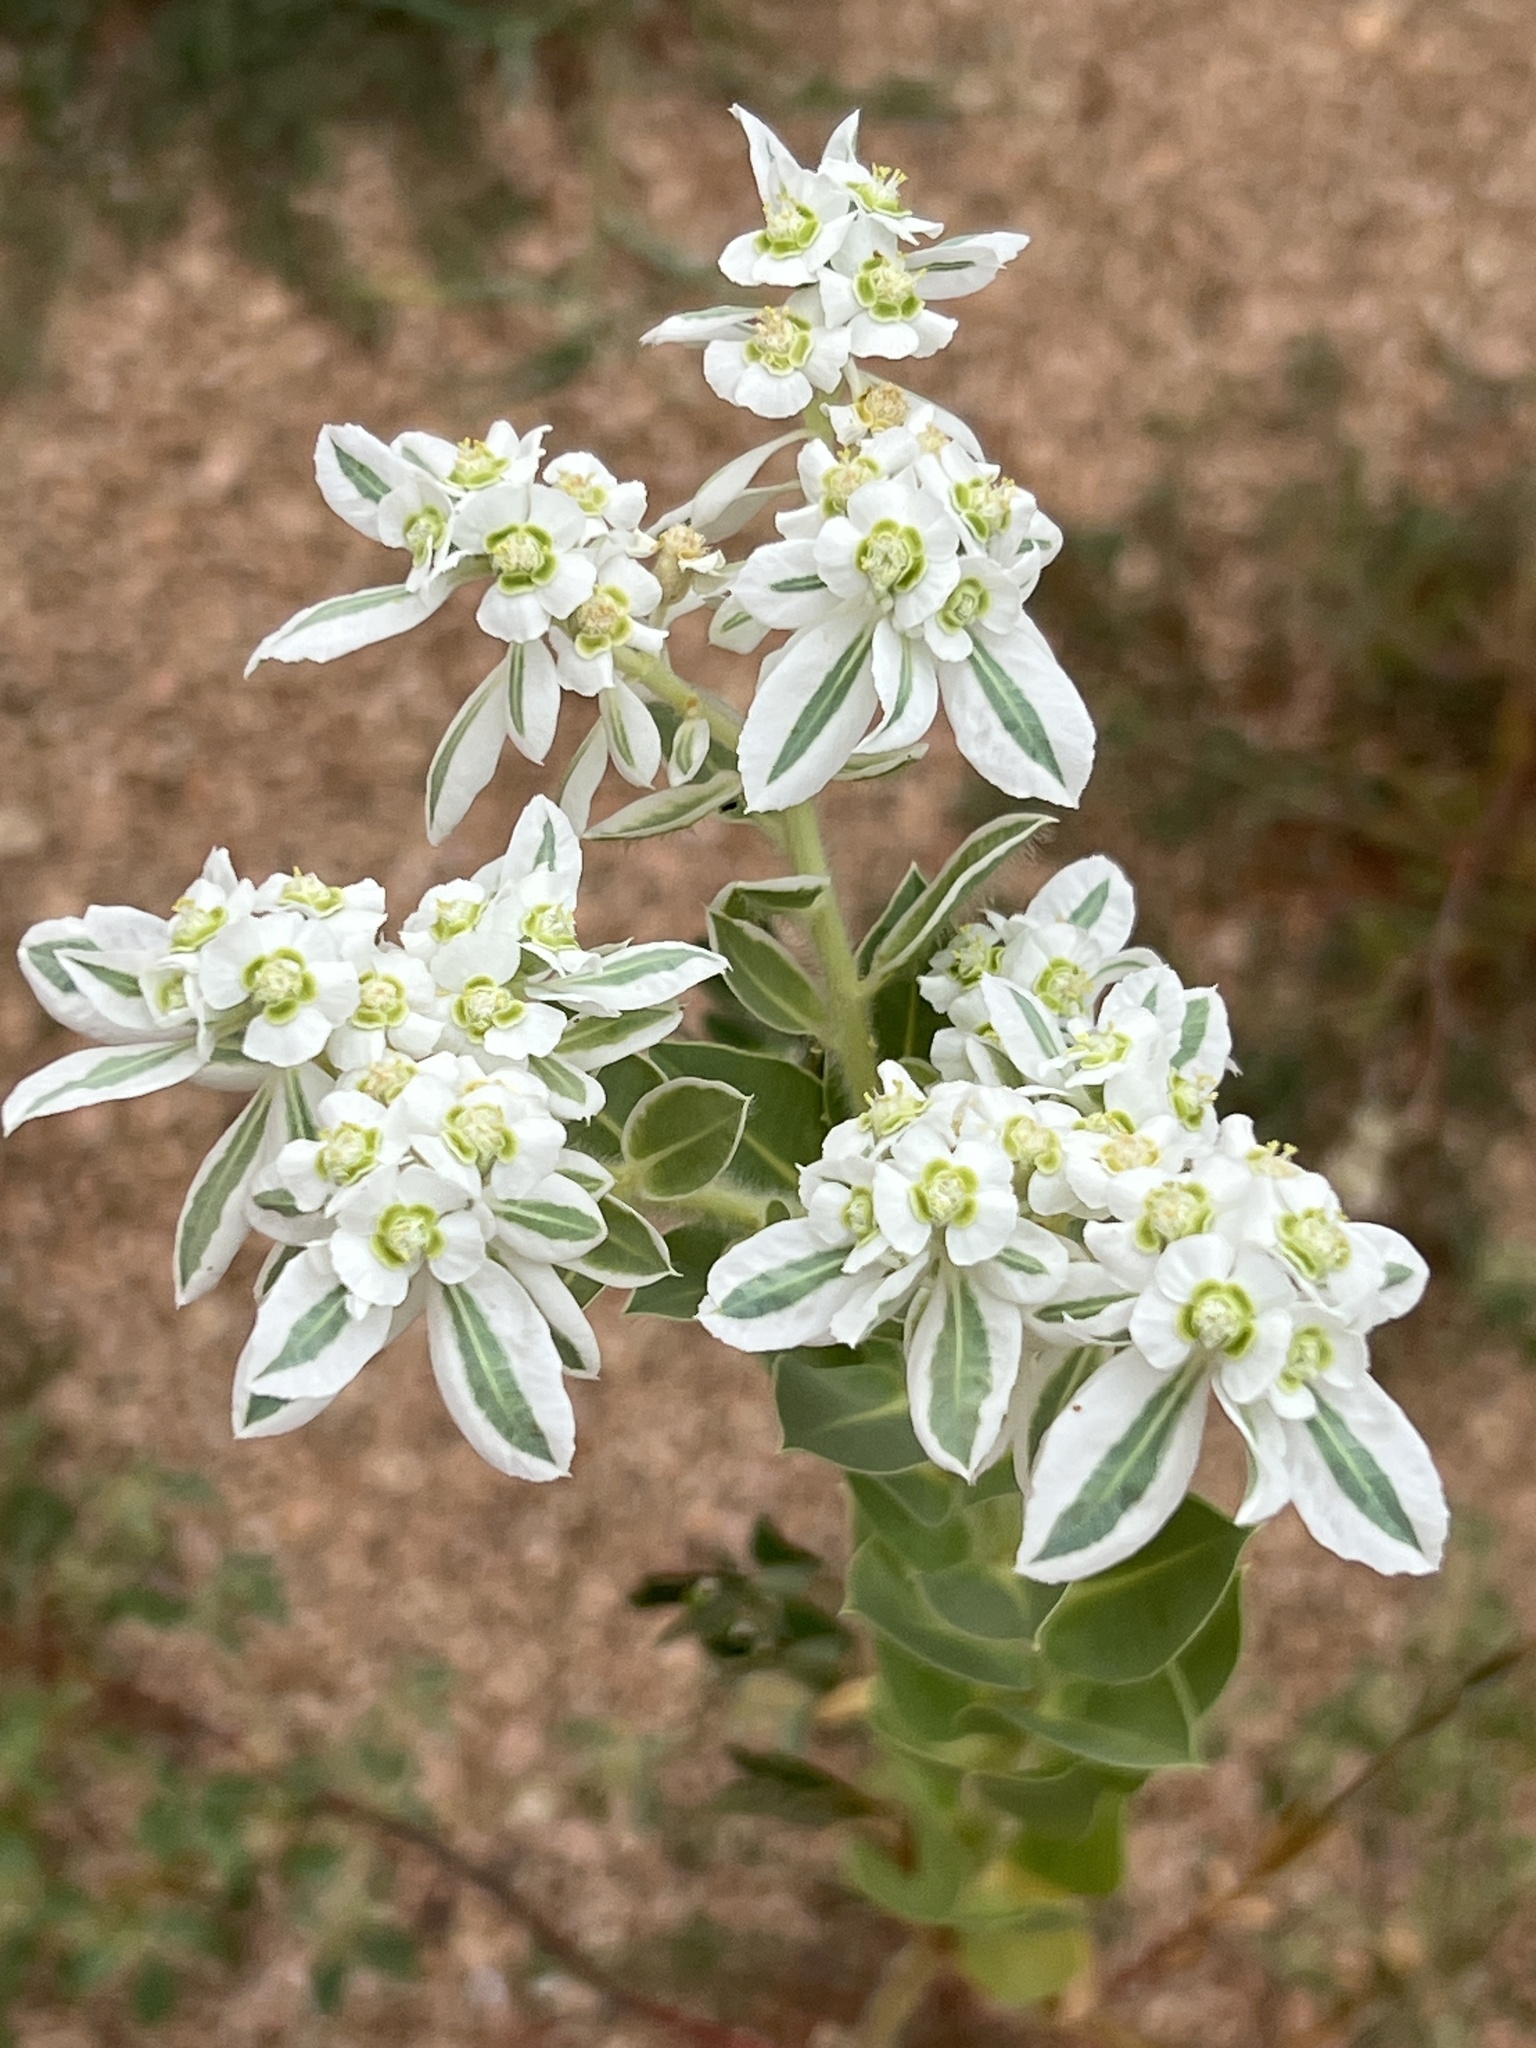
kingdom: Plantae
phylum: Tracheophyta
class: Magnoliopsida
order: Malpighiales
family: Euphorbiaceae
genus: Euphorbia
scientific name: Euphorbia marginata
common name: Ghostweed
